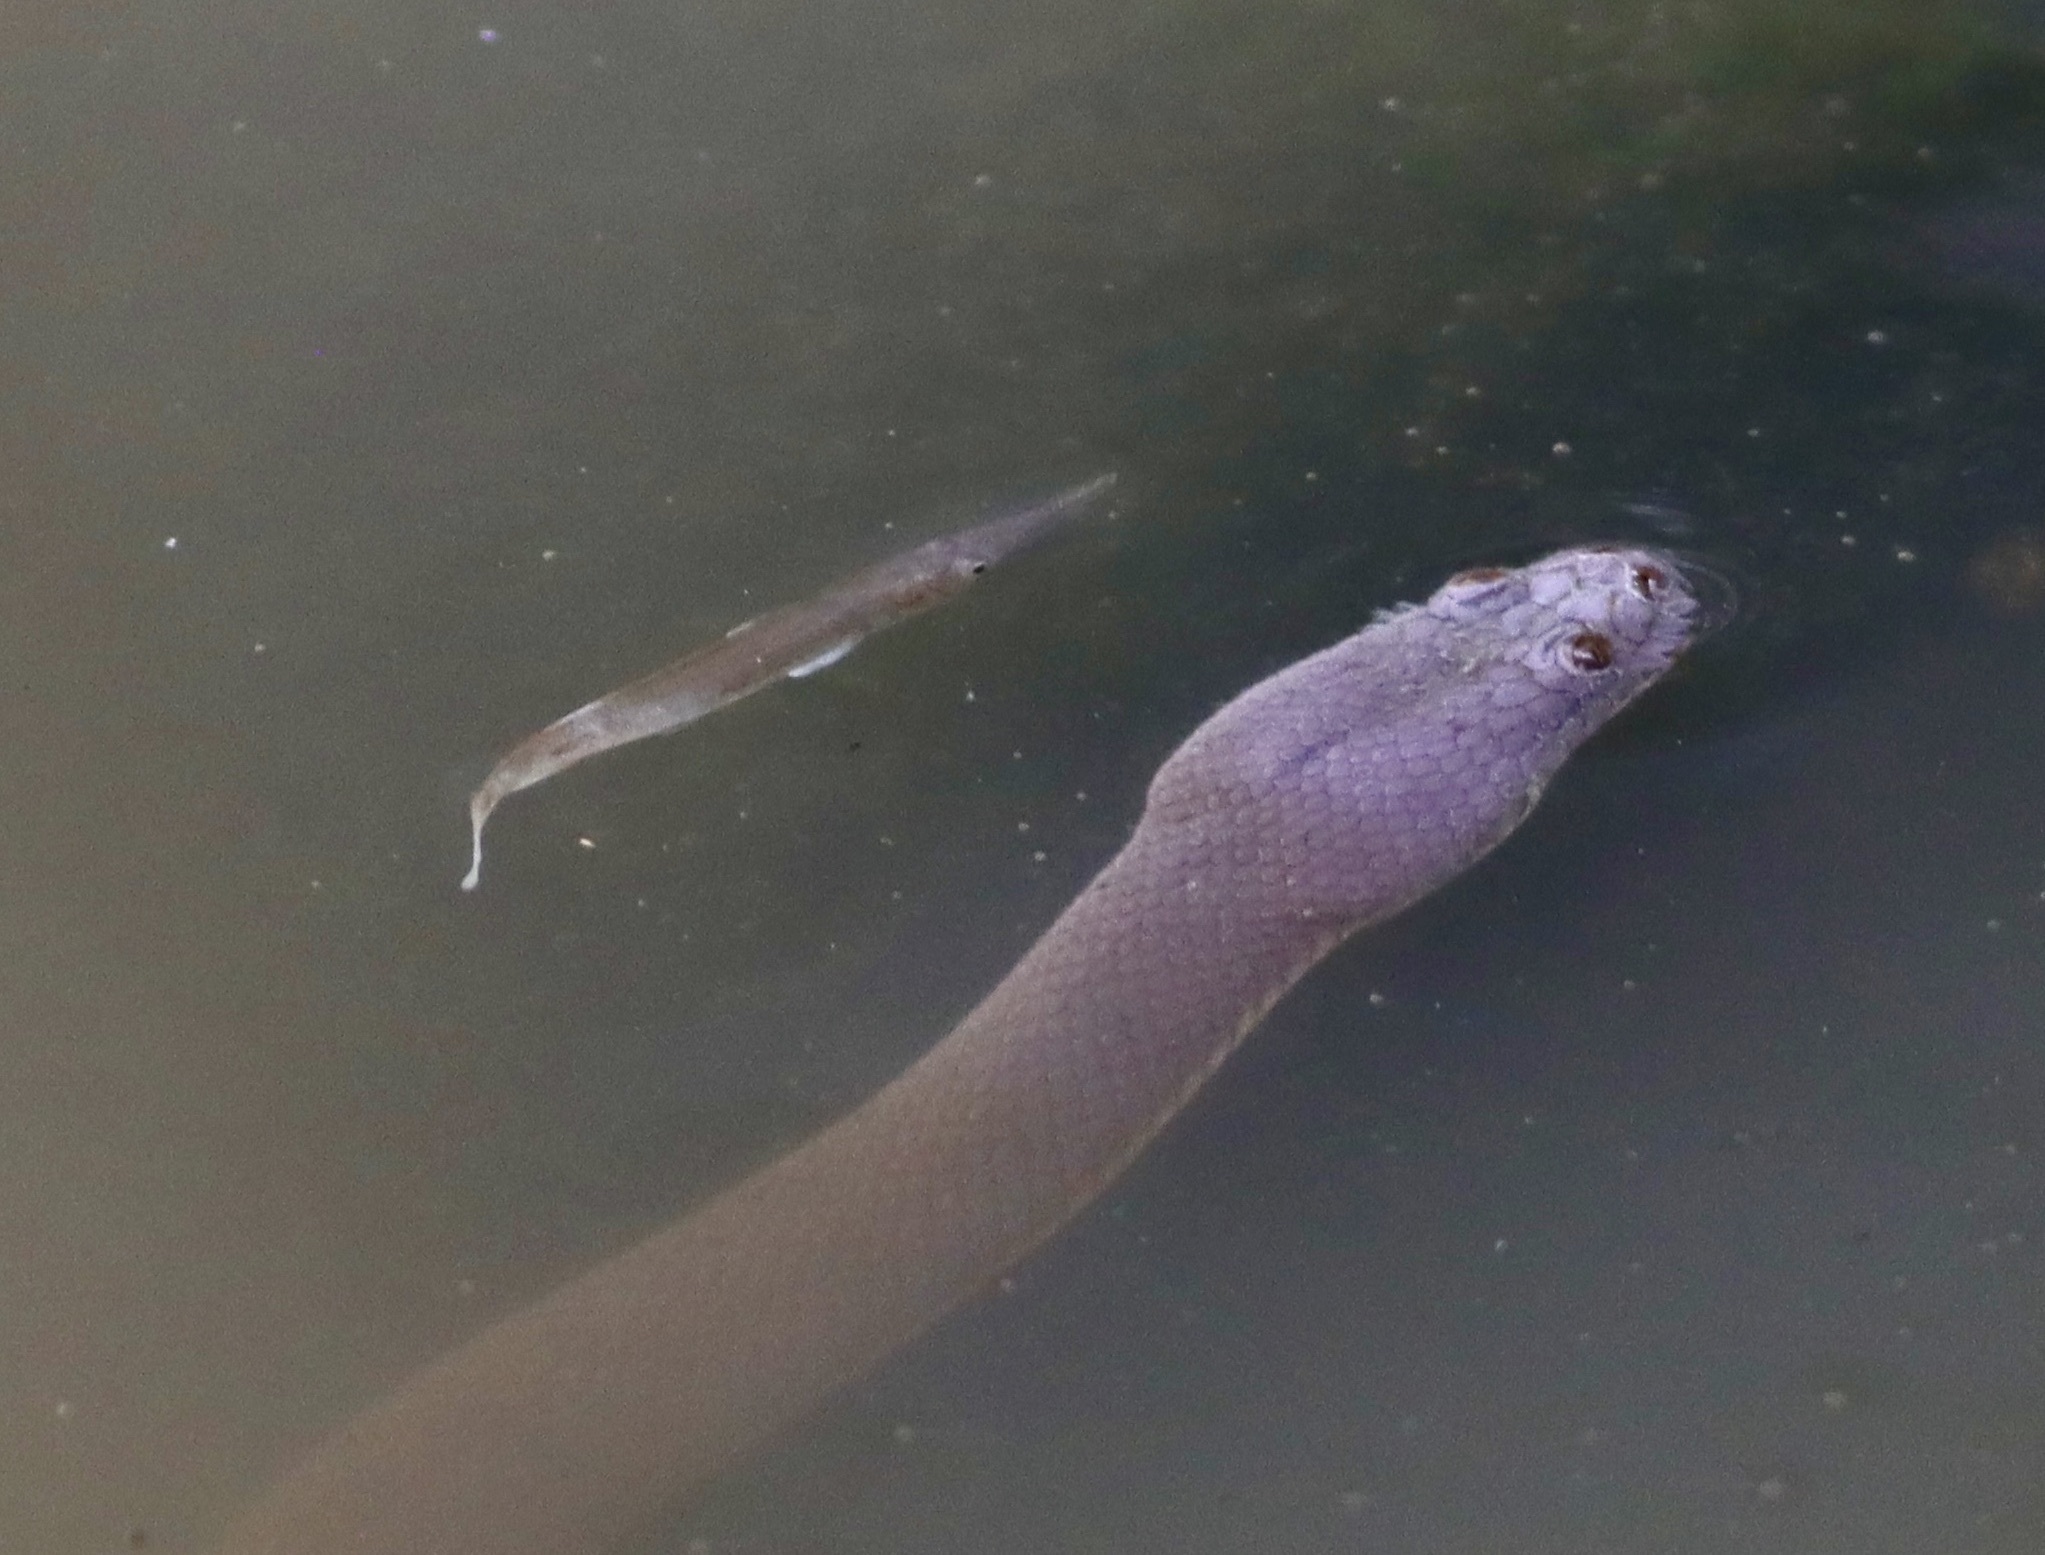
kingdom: Animalia
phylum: Chordata
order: Beloniformes
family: Zenarchopteridae
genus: Dermogenys
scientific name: Dermogenys siamensis
